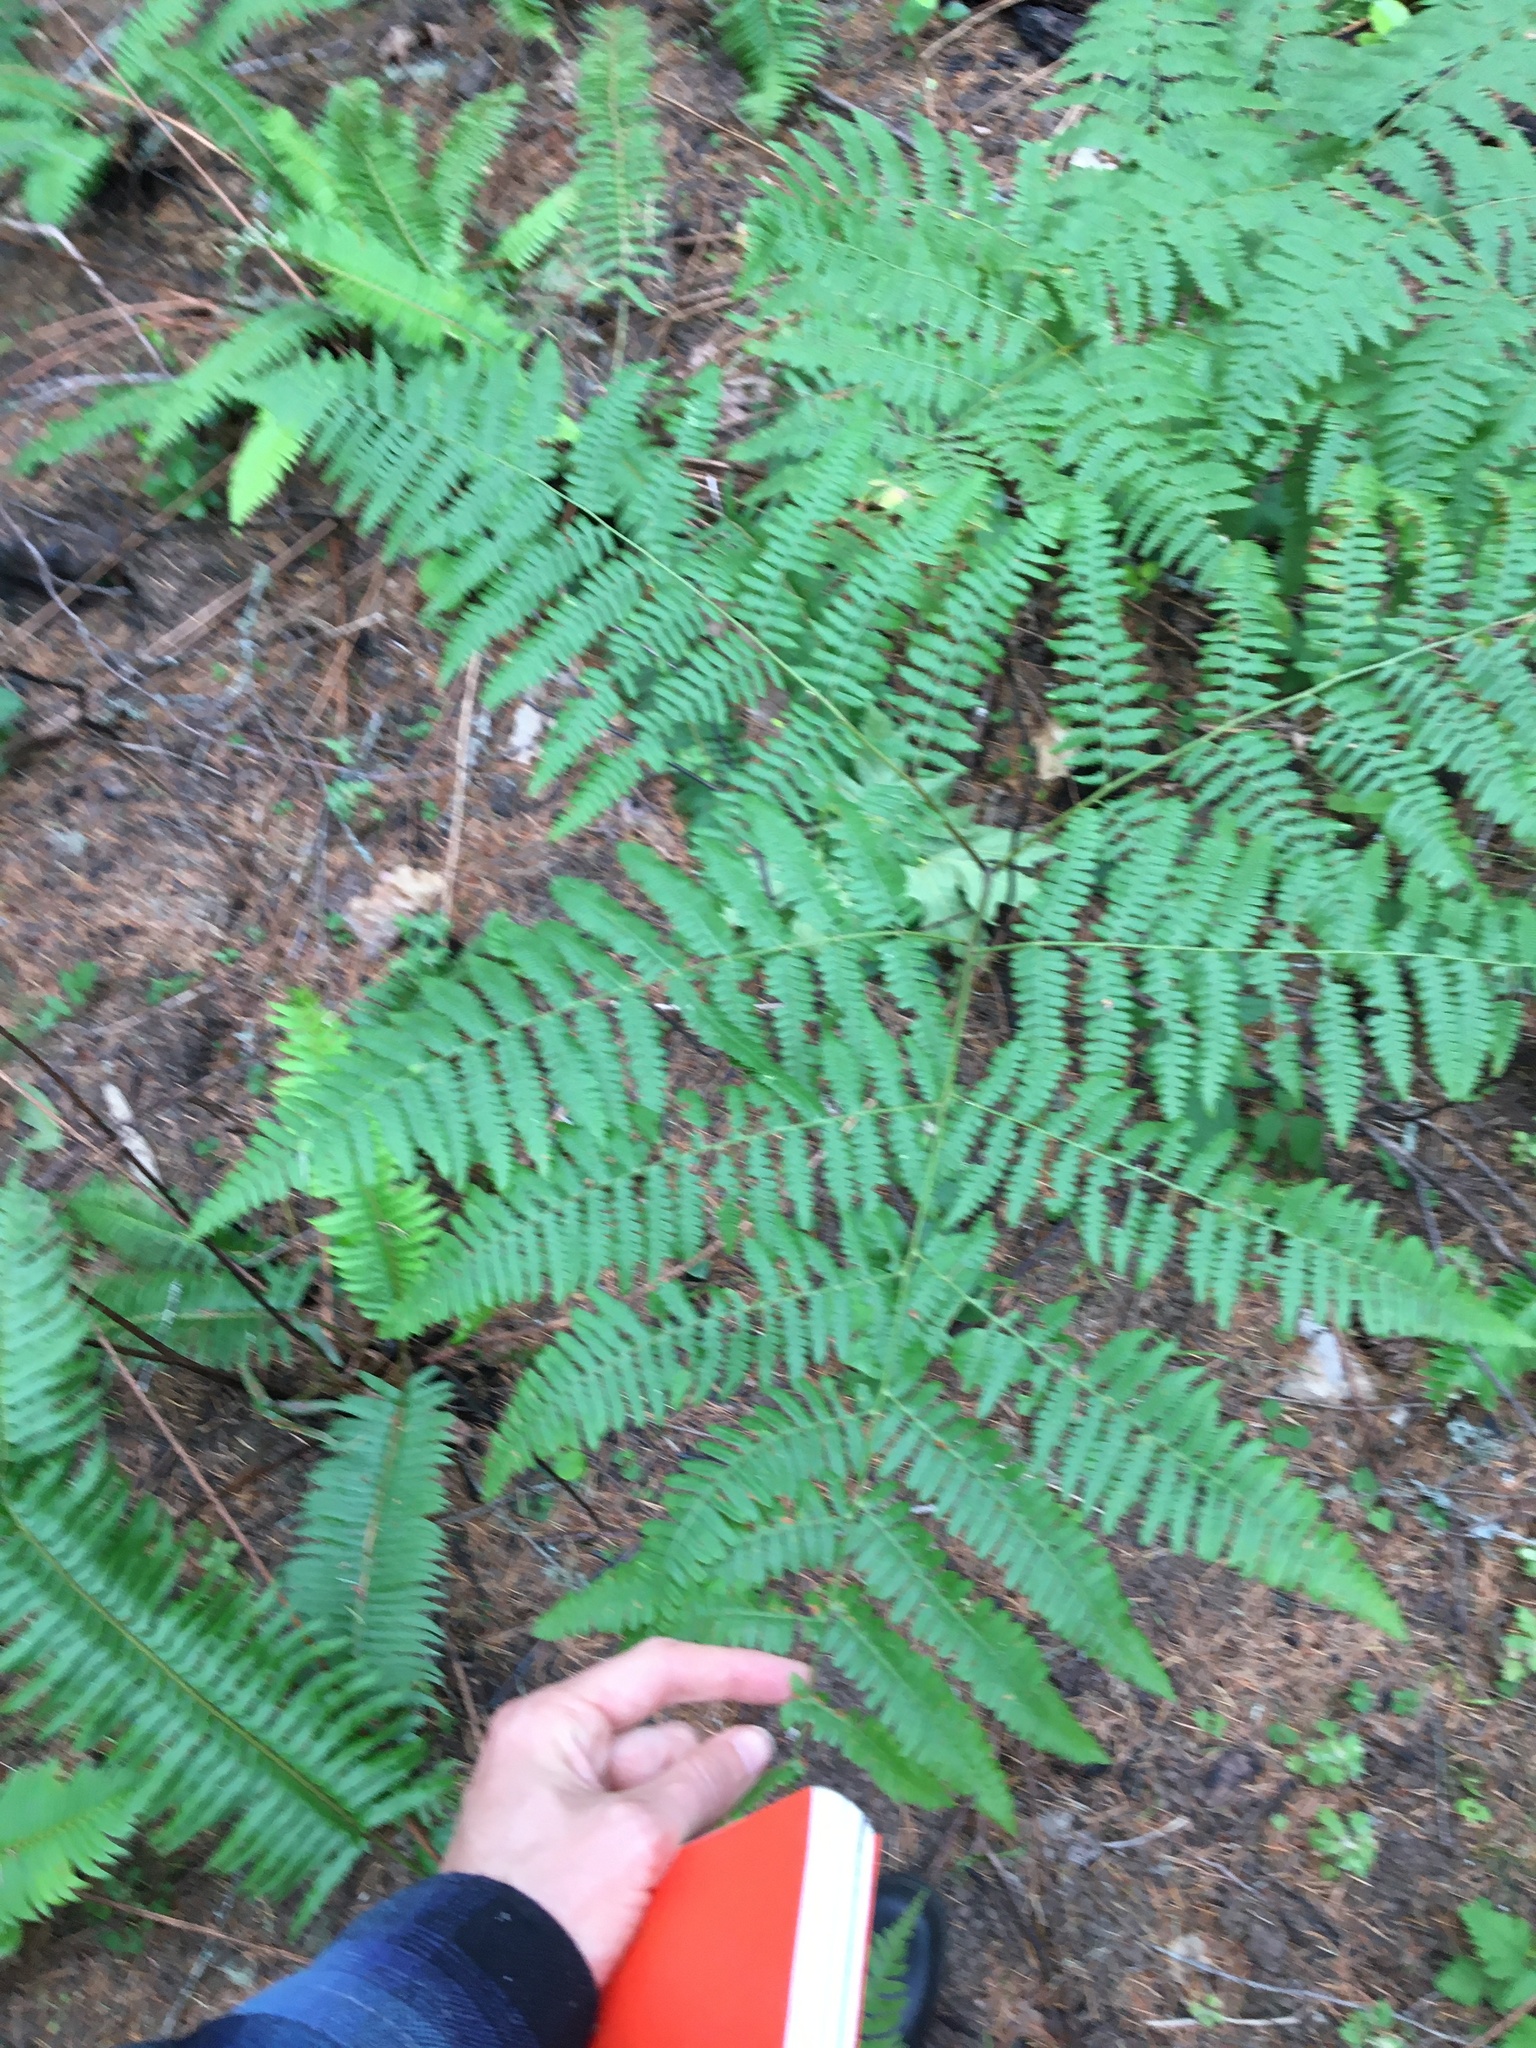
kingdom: Plantae
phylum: Tracheophyta
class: Polypodiopsida
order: Polypodiales
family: Dennstaedtiaceae
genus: Pteridium
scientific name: Pteridium aquilinum
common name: Bracken
